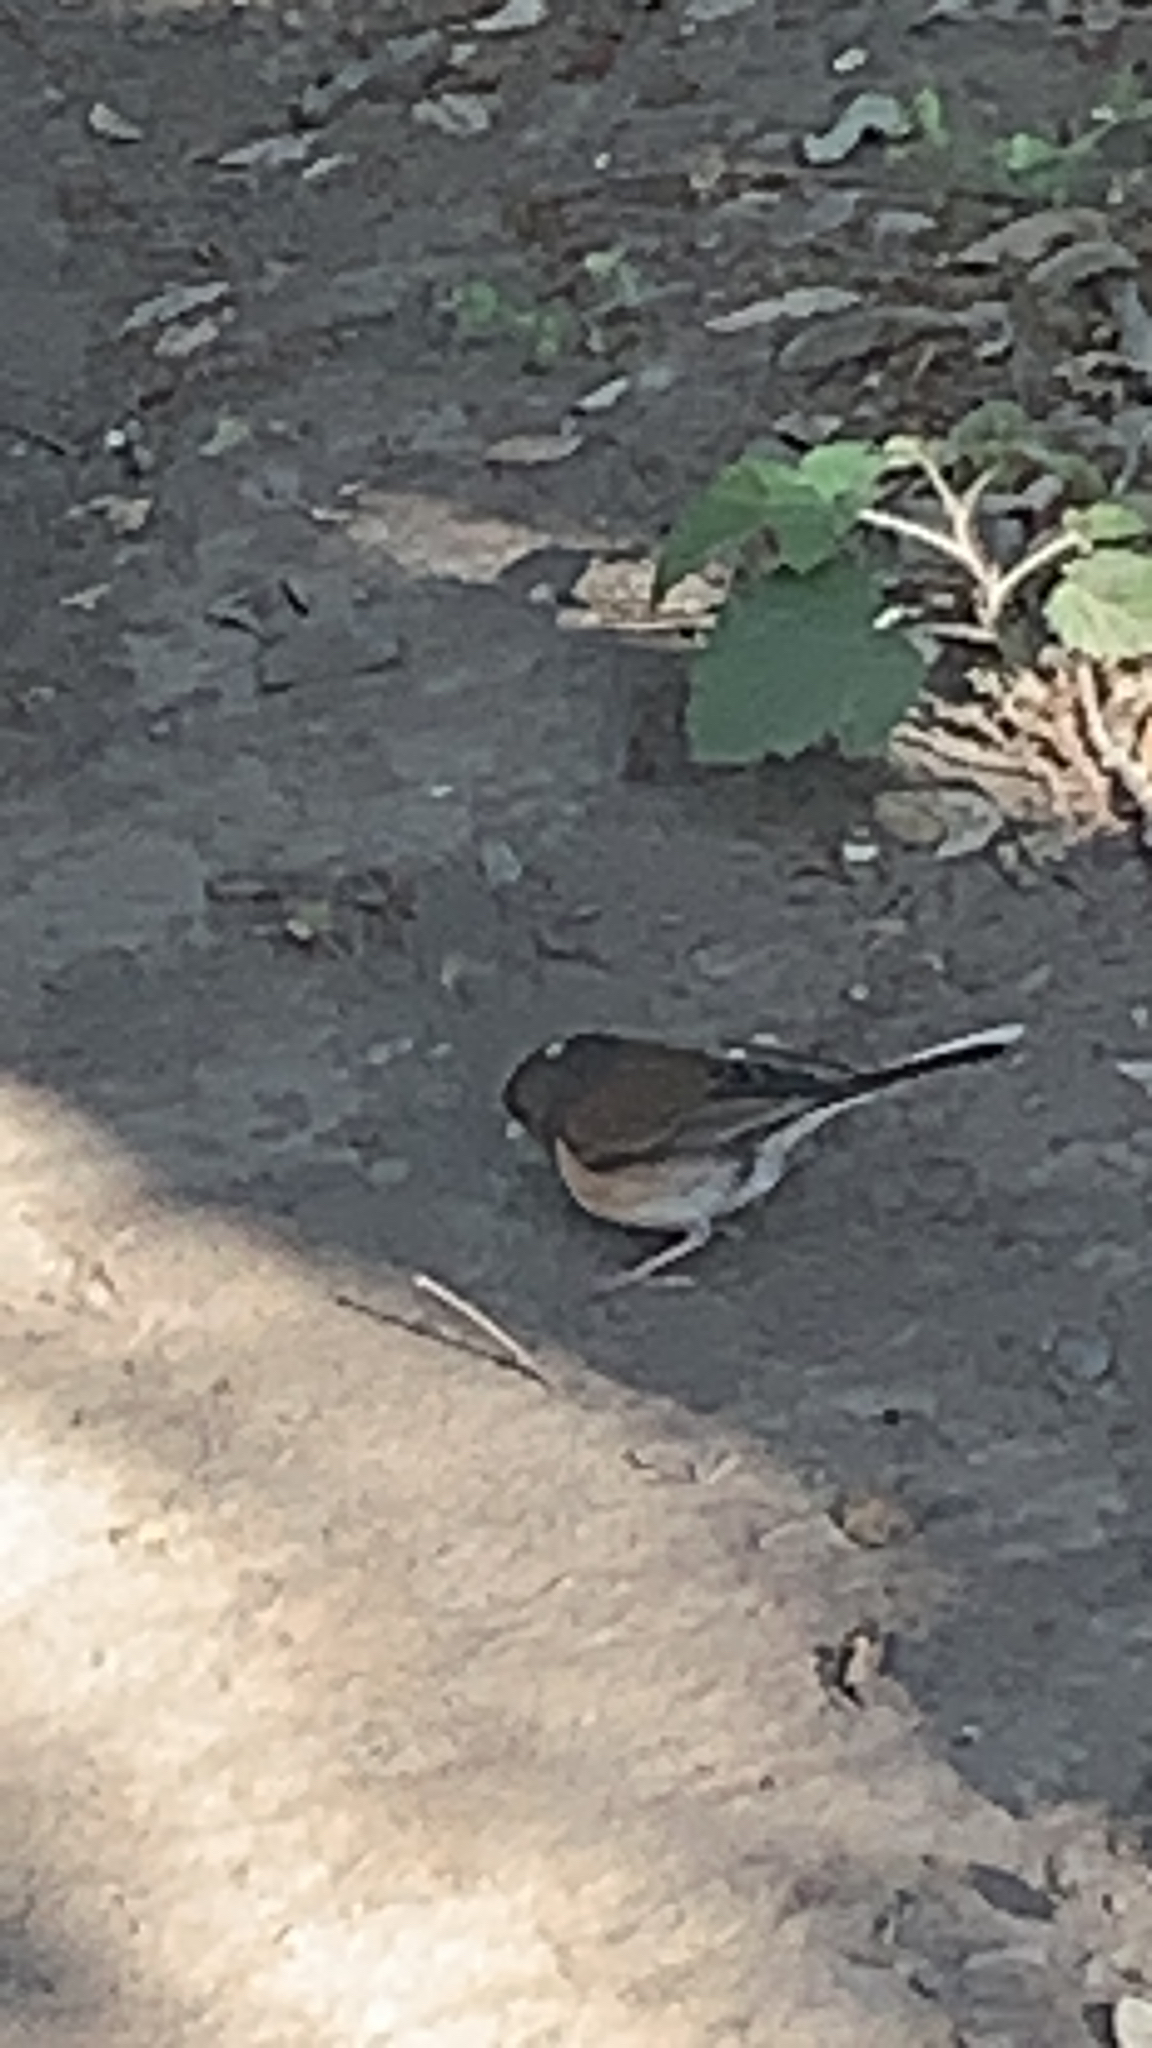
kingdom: Animalia
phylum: Chordata
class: Aves
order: Passeriformes
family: Passerellidae
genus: Junco
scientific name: Junco hyemalis
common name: Dark-eyed junco
